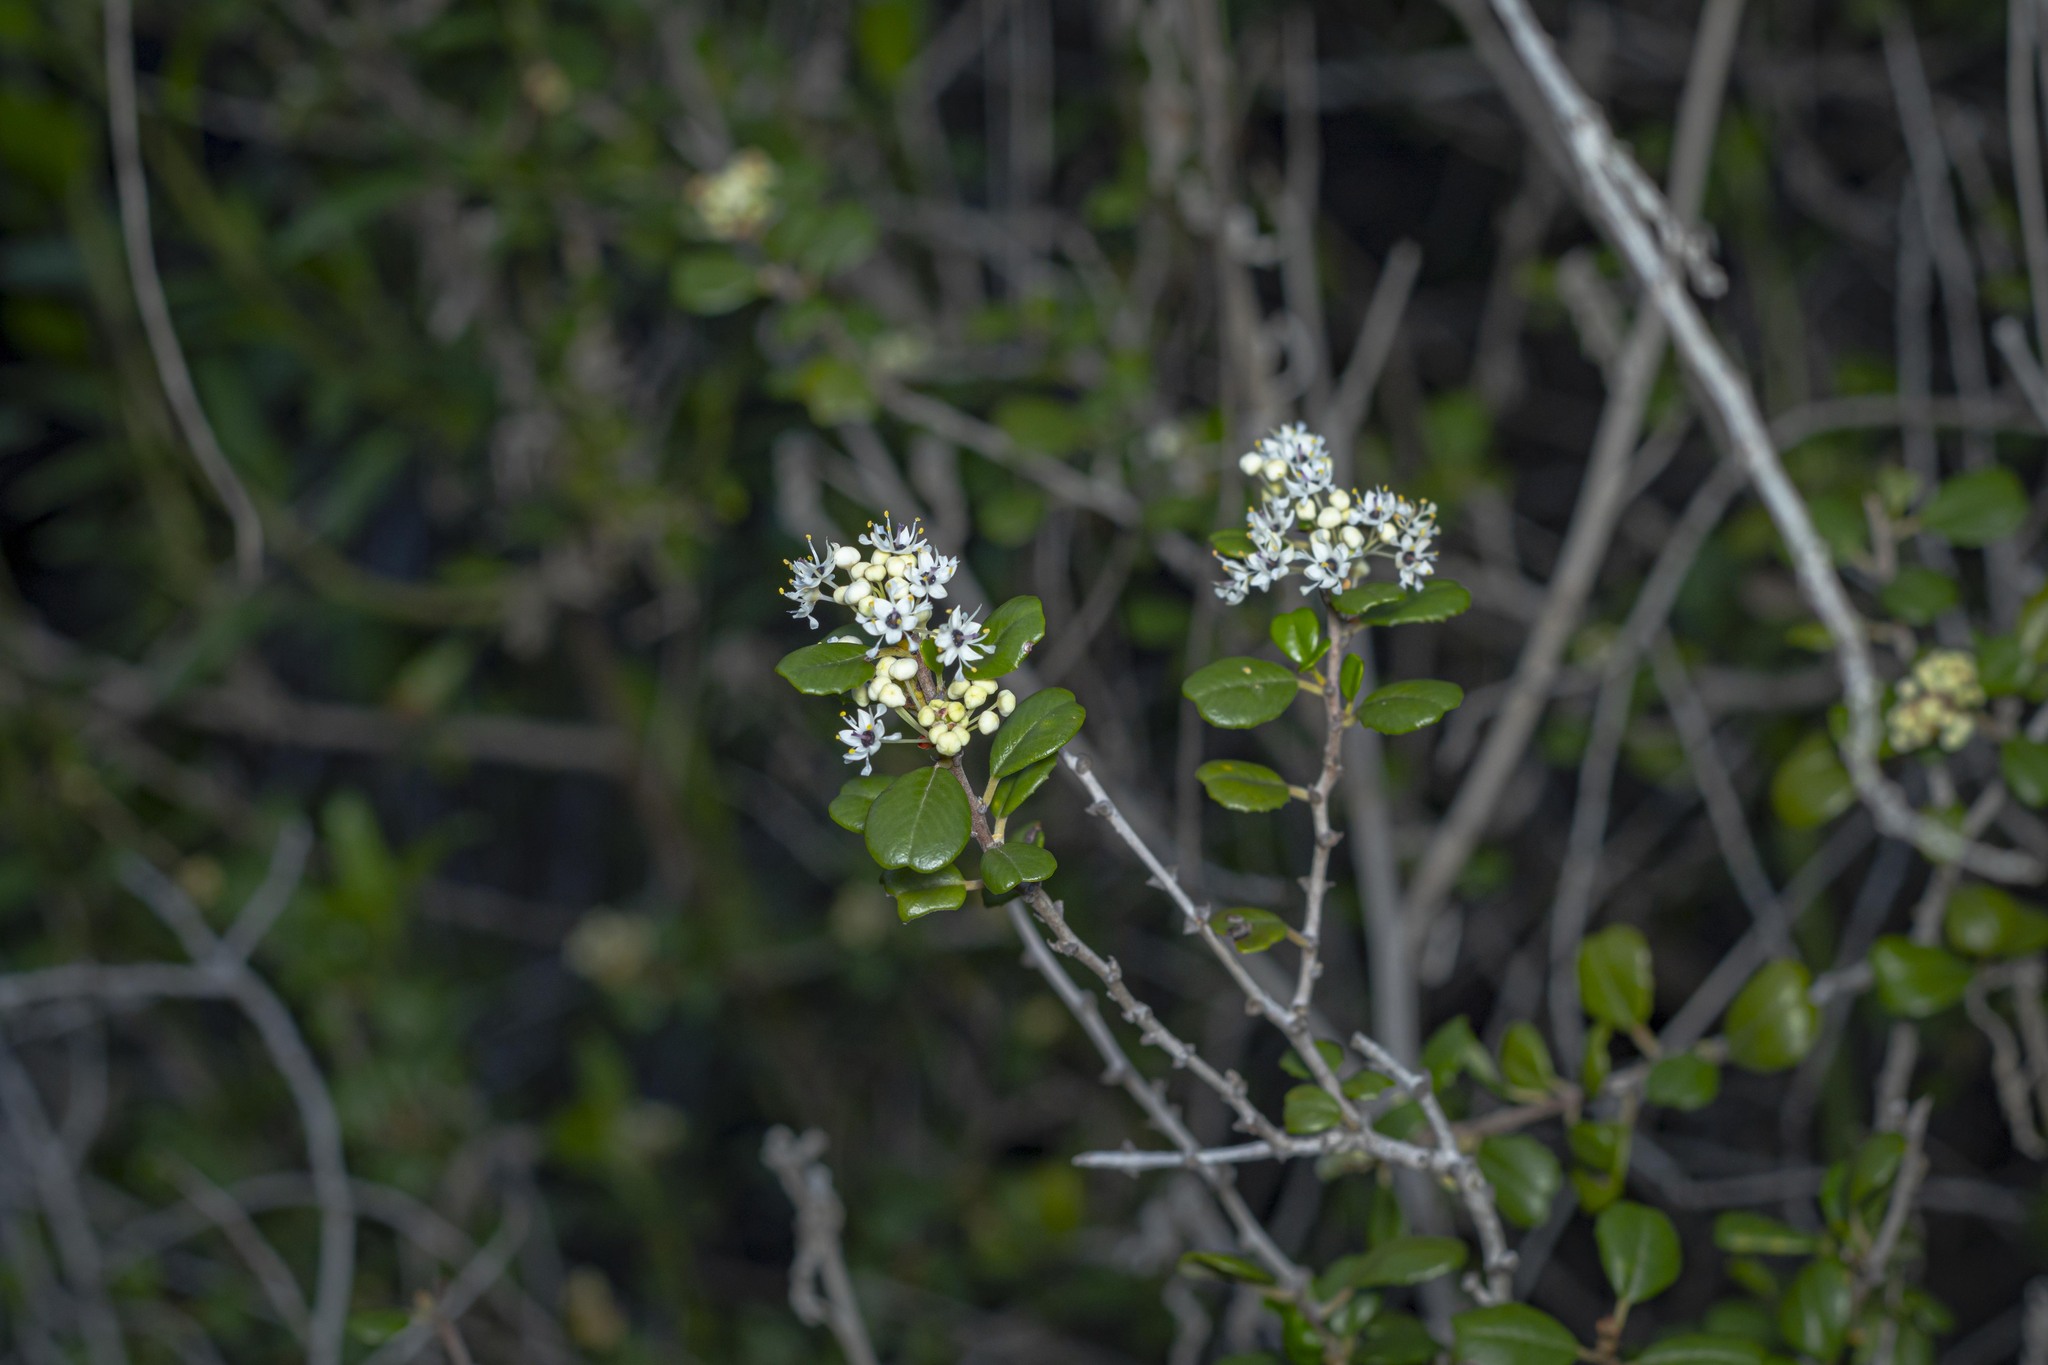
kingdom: Plantae
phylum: Tracheophyta
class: Magnoliopsida
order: Rosales
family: Rhamnaceae
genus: Ceanothus
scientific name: Ceanothus verrucosus
